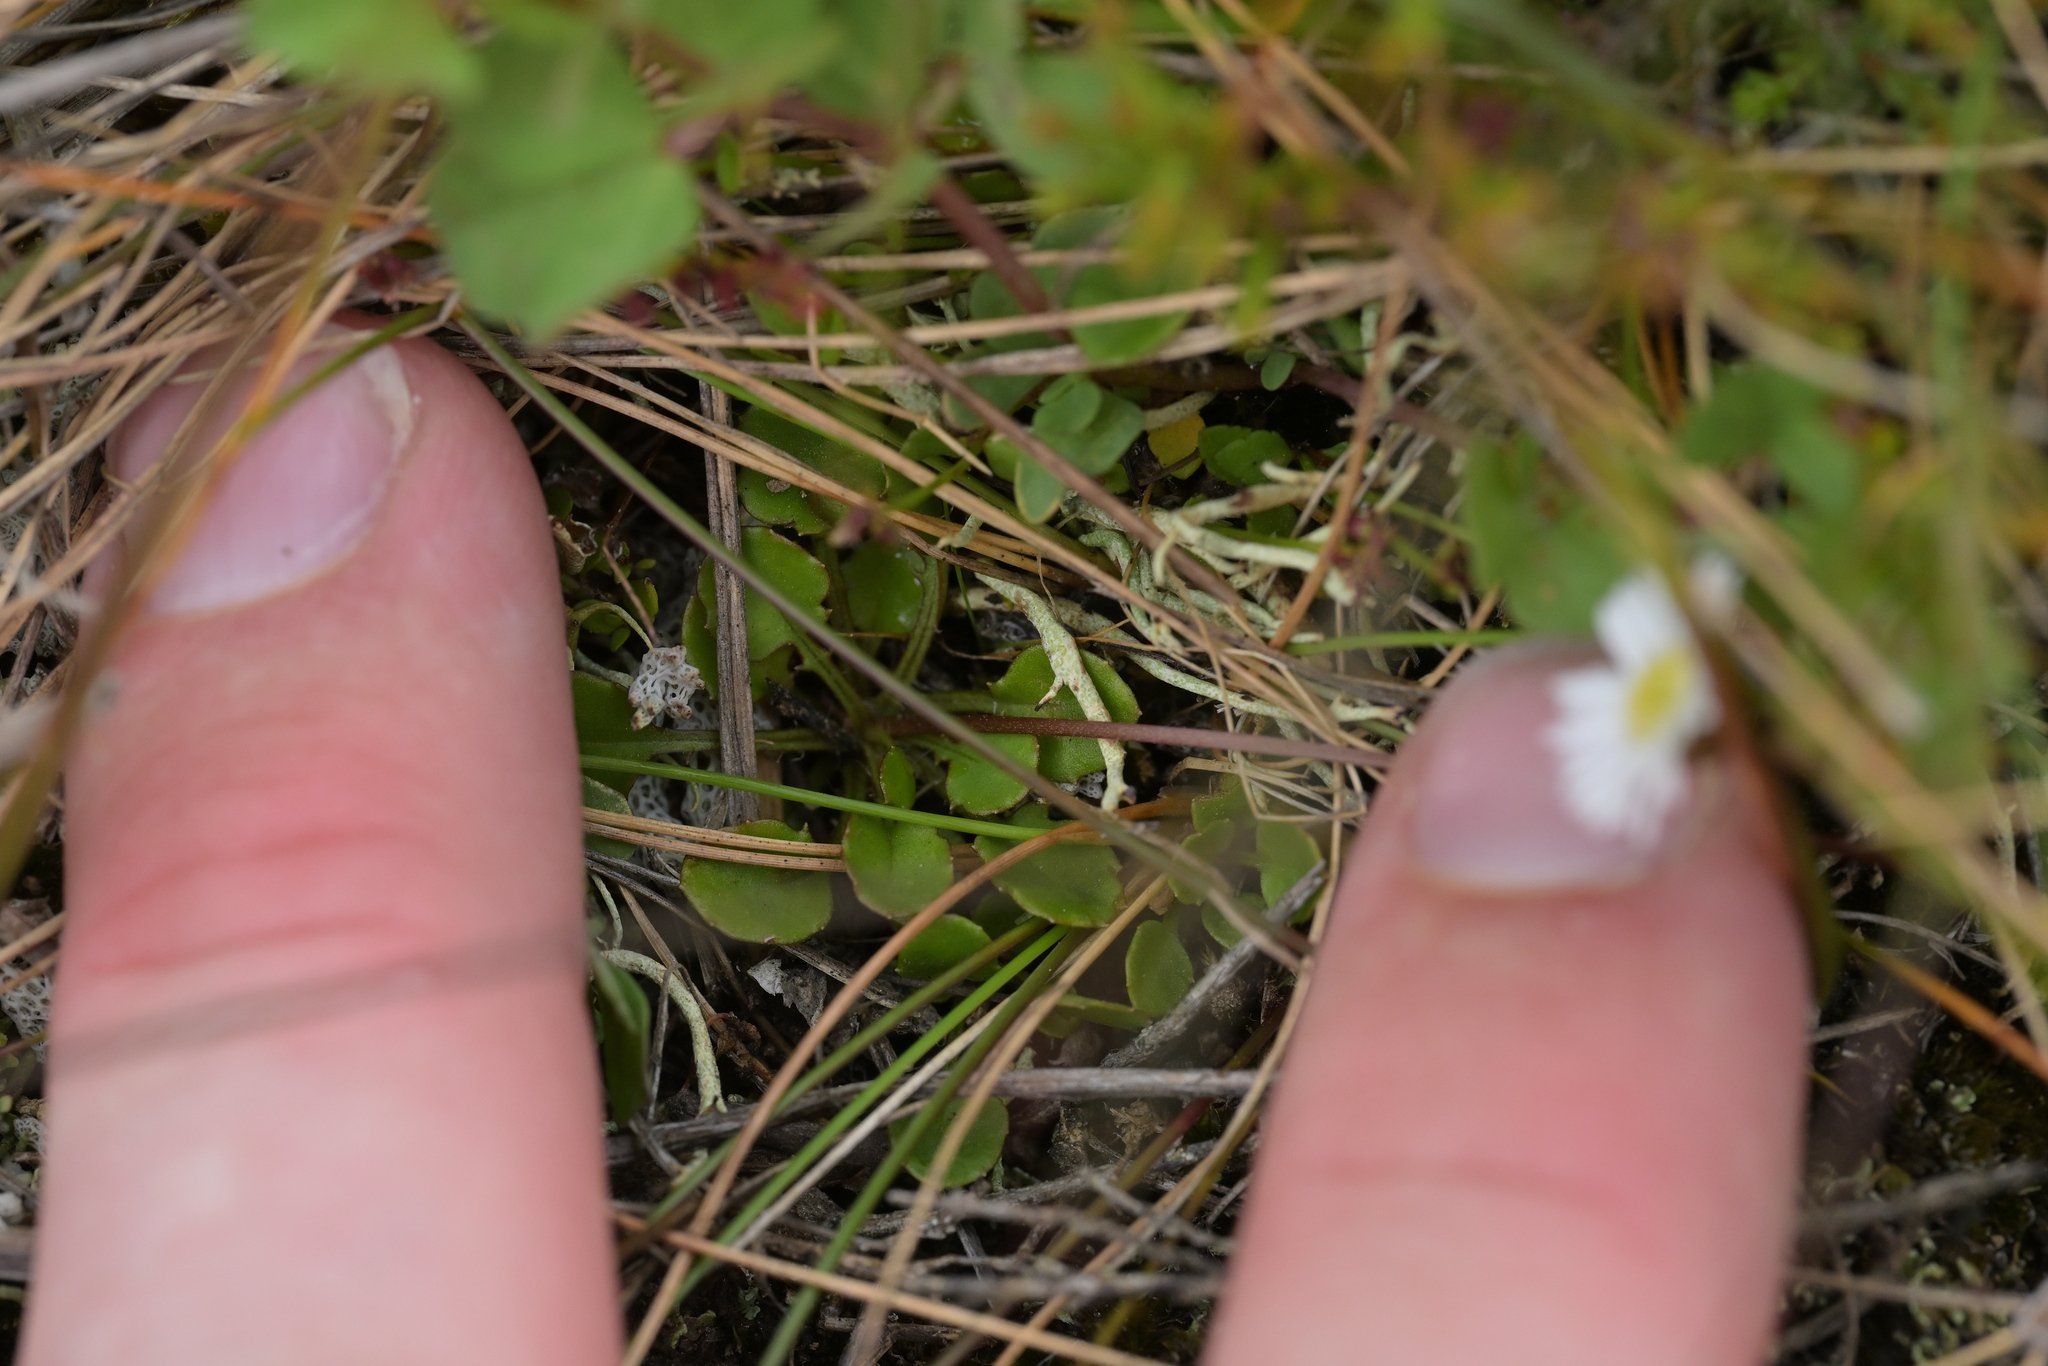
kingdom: Plantae
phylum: Tracheophyta
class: Magnoliopsida
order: Asterales
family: Asteraceae
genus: Lagenophora
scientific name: Lagenophora pumila
